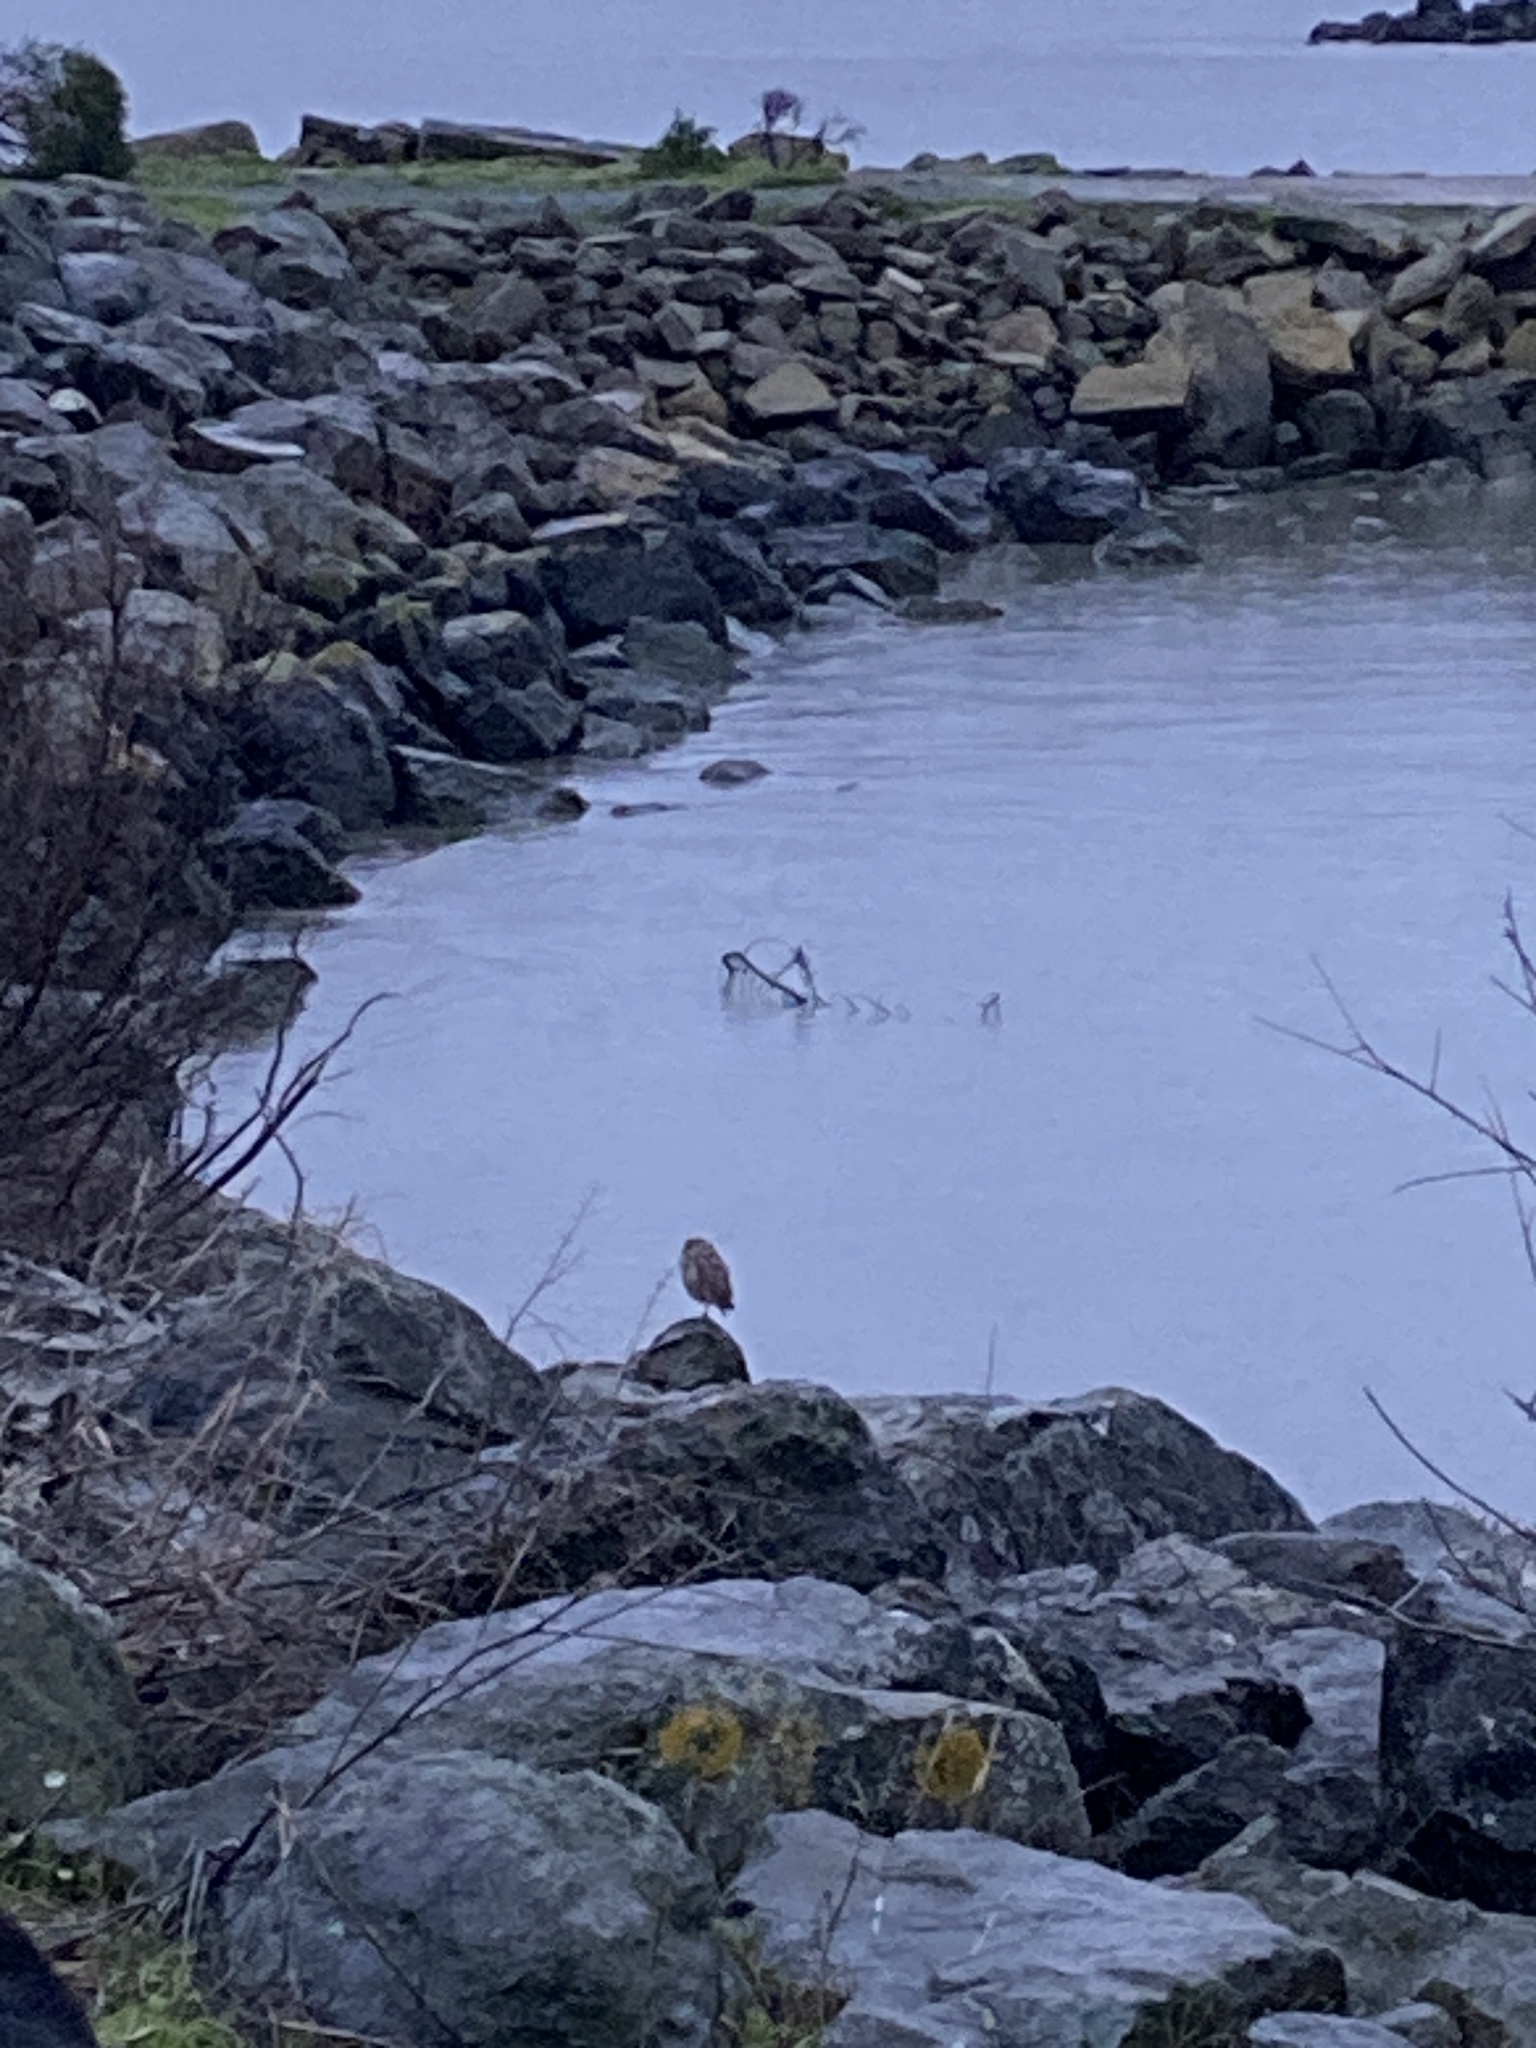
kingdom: Animalia
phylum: Chordata
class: Aves
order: Strigiformes
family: Strigidae
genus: Athene
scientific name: Athene cunicularia
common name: Burrowing owl
